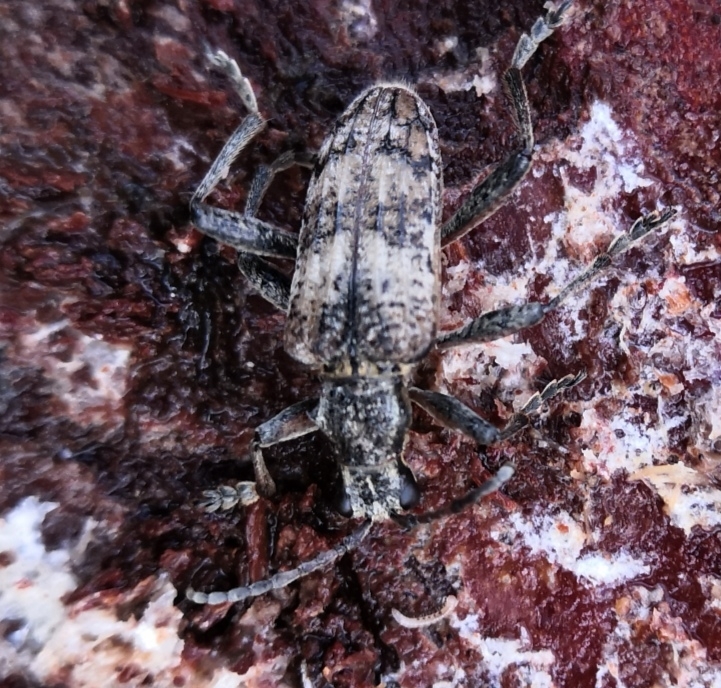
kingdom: Animalia
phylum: Arthropoda
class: Insecta
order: Coleoptera
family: Cerambycidae
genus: Rhagium
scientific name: Rhagium inquisitor
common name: Ribbed pine borer
